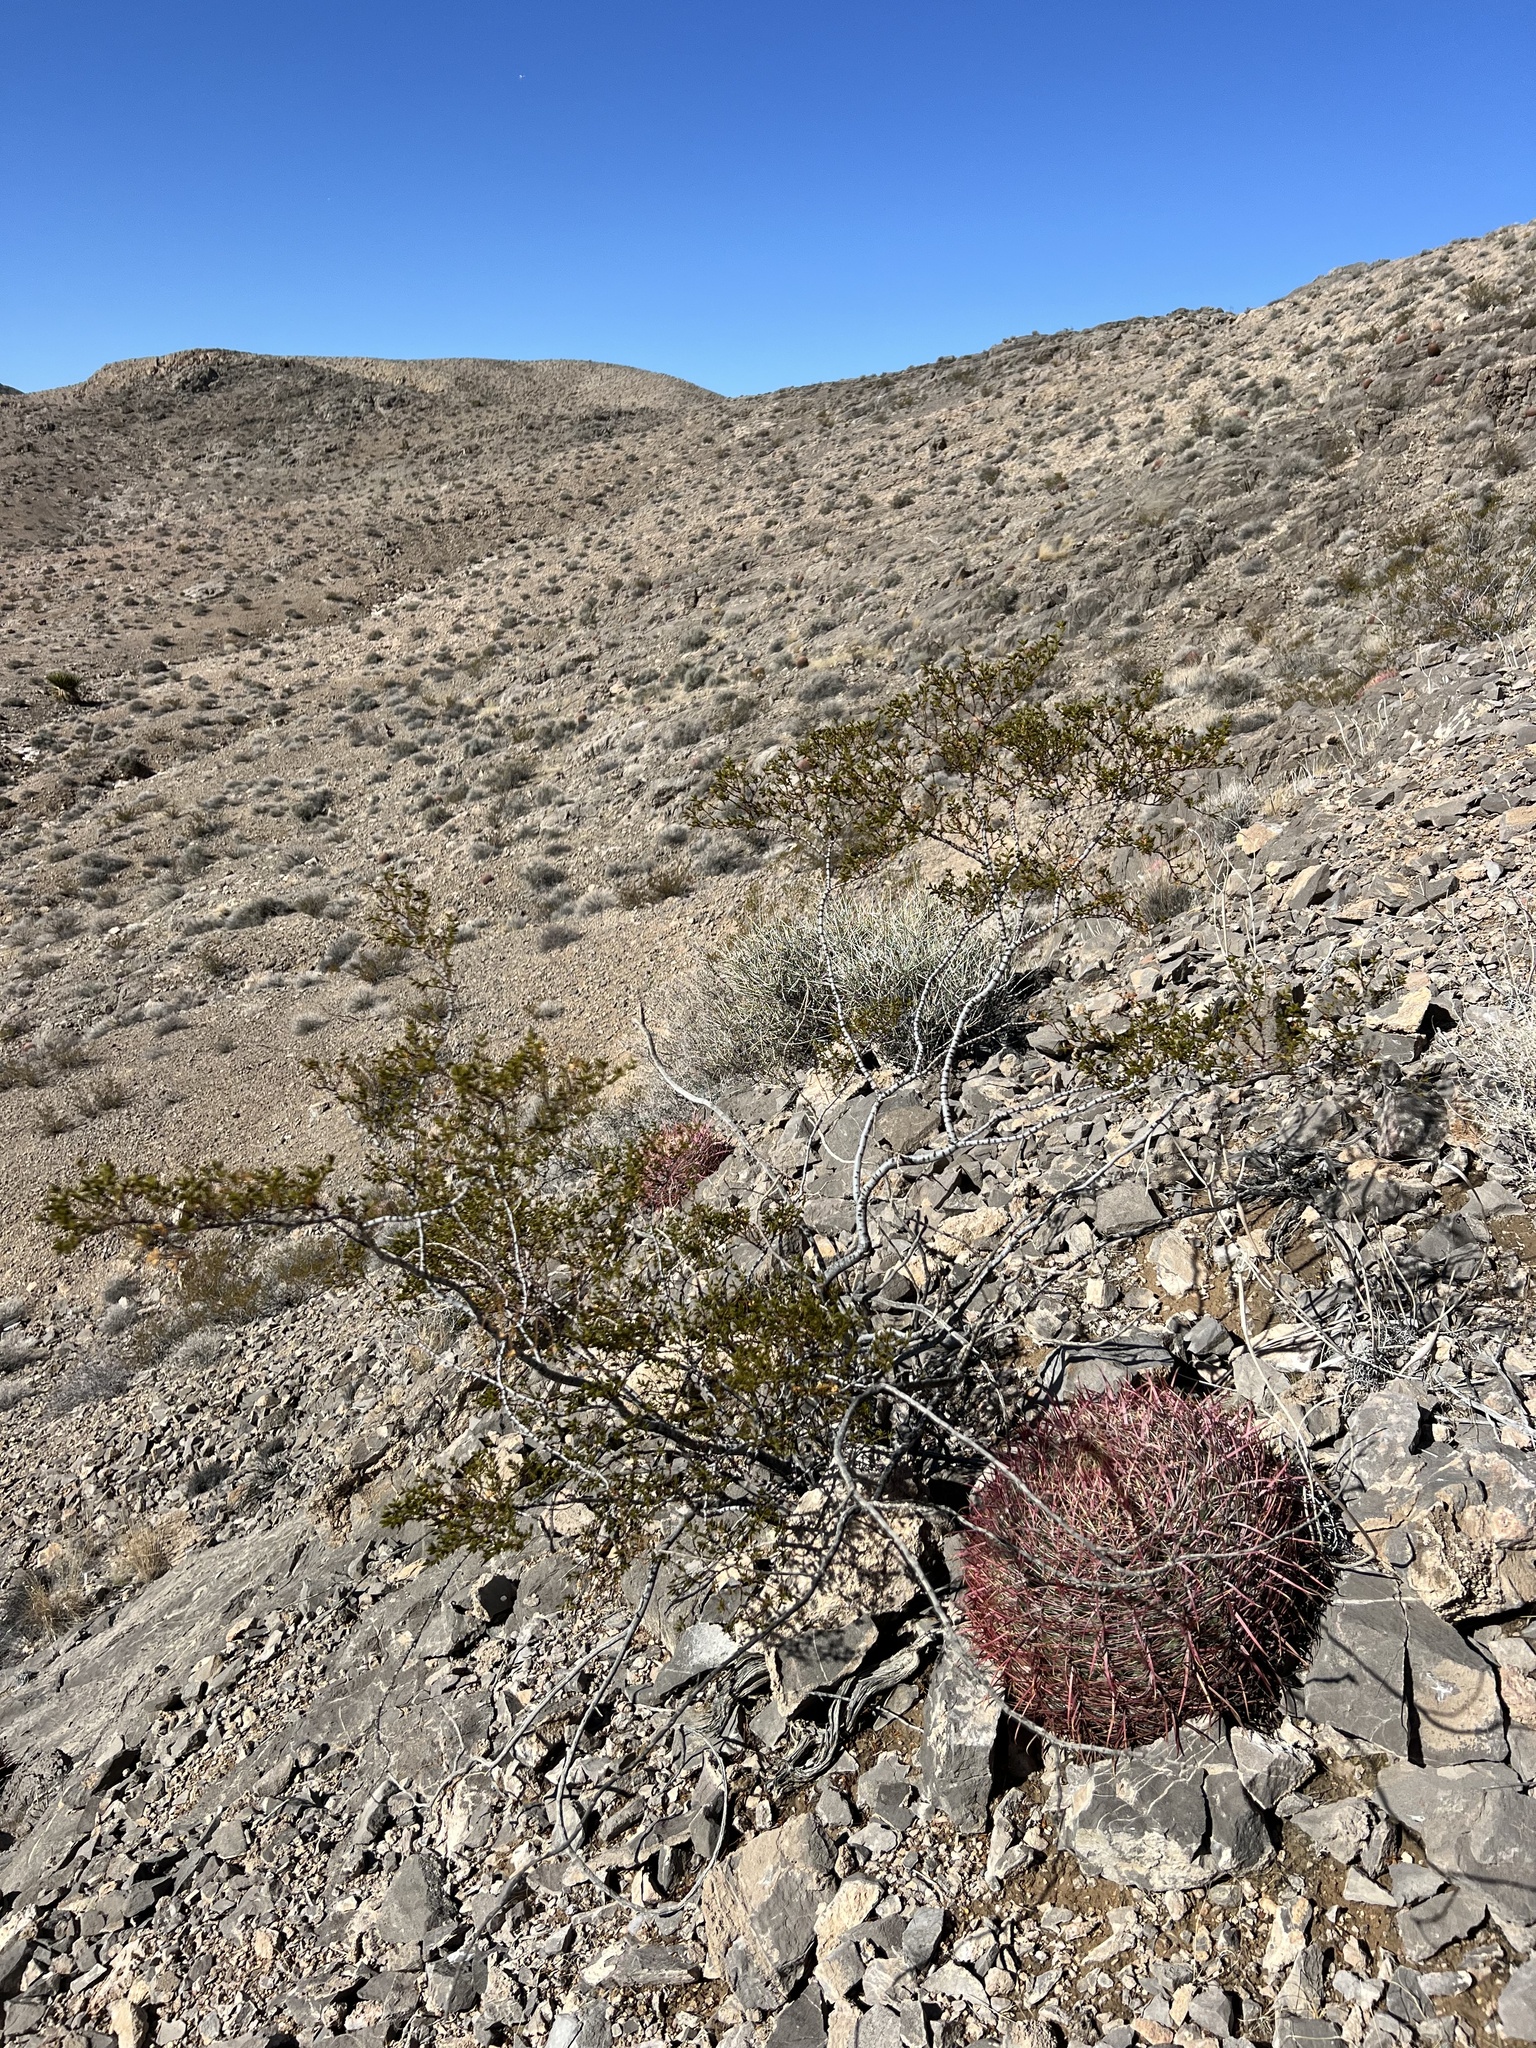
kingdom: Plantae
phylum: Tracheophyta
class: Magnoliopsida
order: Zygophyllales
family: Zygophyllaceae
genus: Larrea
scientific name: Larrea tridentata
